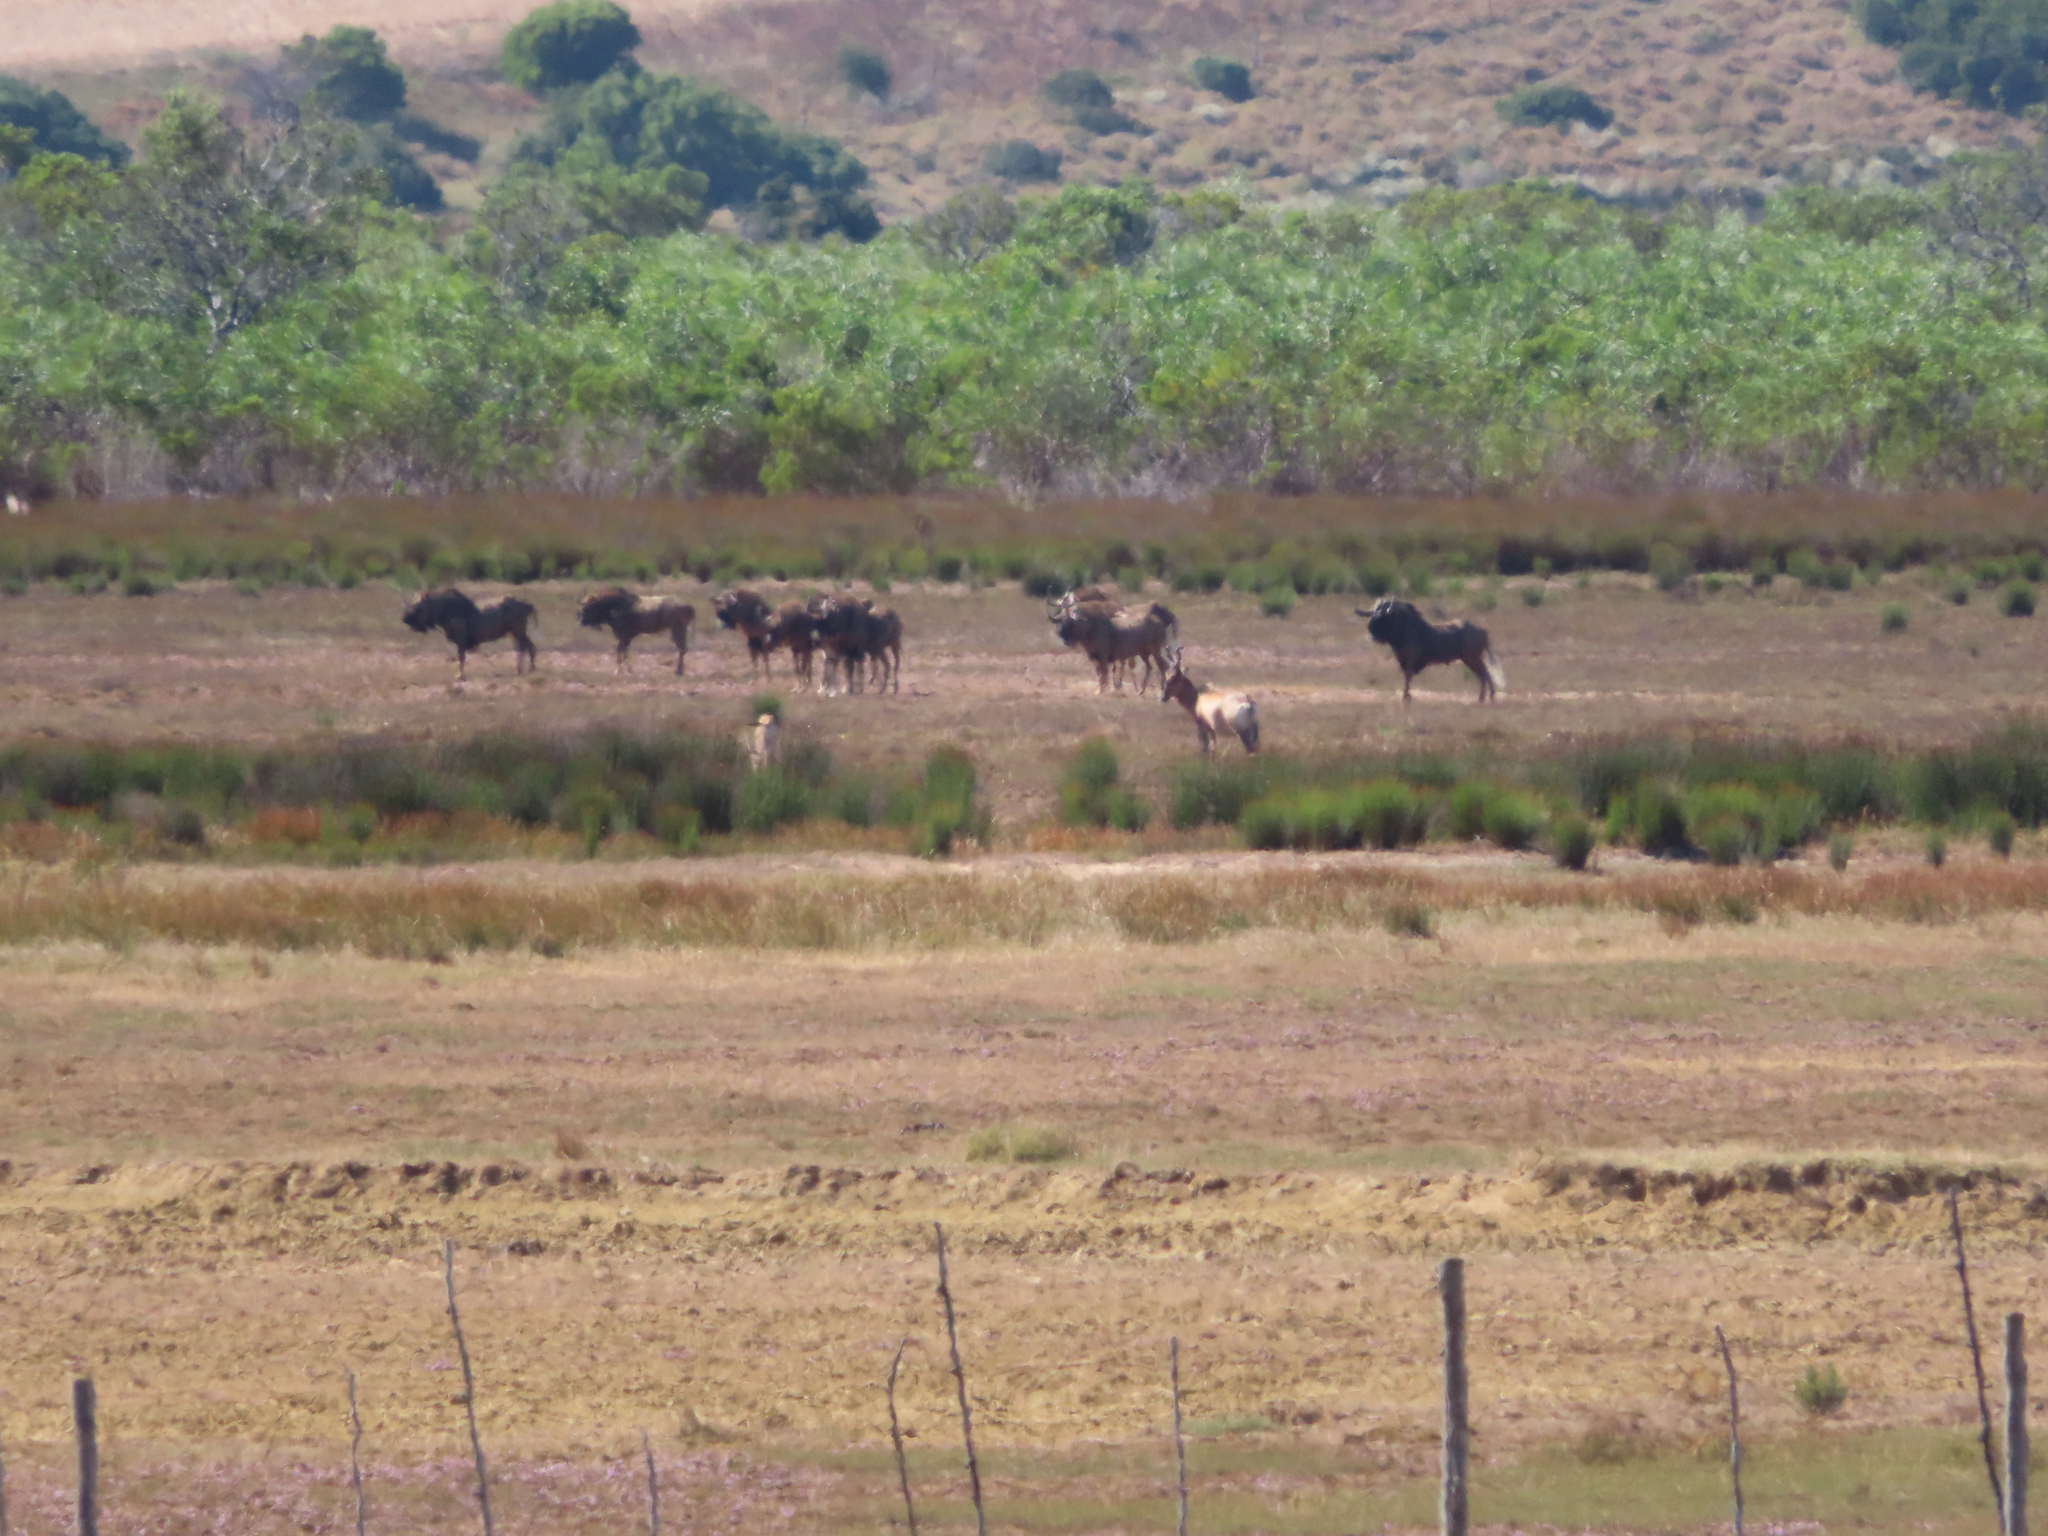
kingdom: Animalia
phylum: Chordata
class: Mammalia
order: Artiodactyla
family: Bovidae
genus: Connochaetes
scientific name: Connochaetes gnou
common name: Black wildebeest
